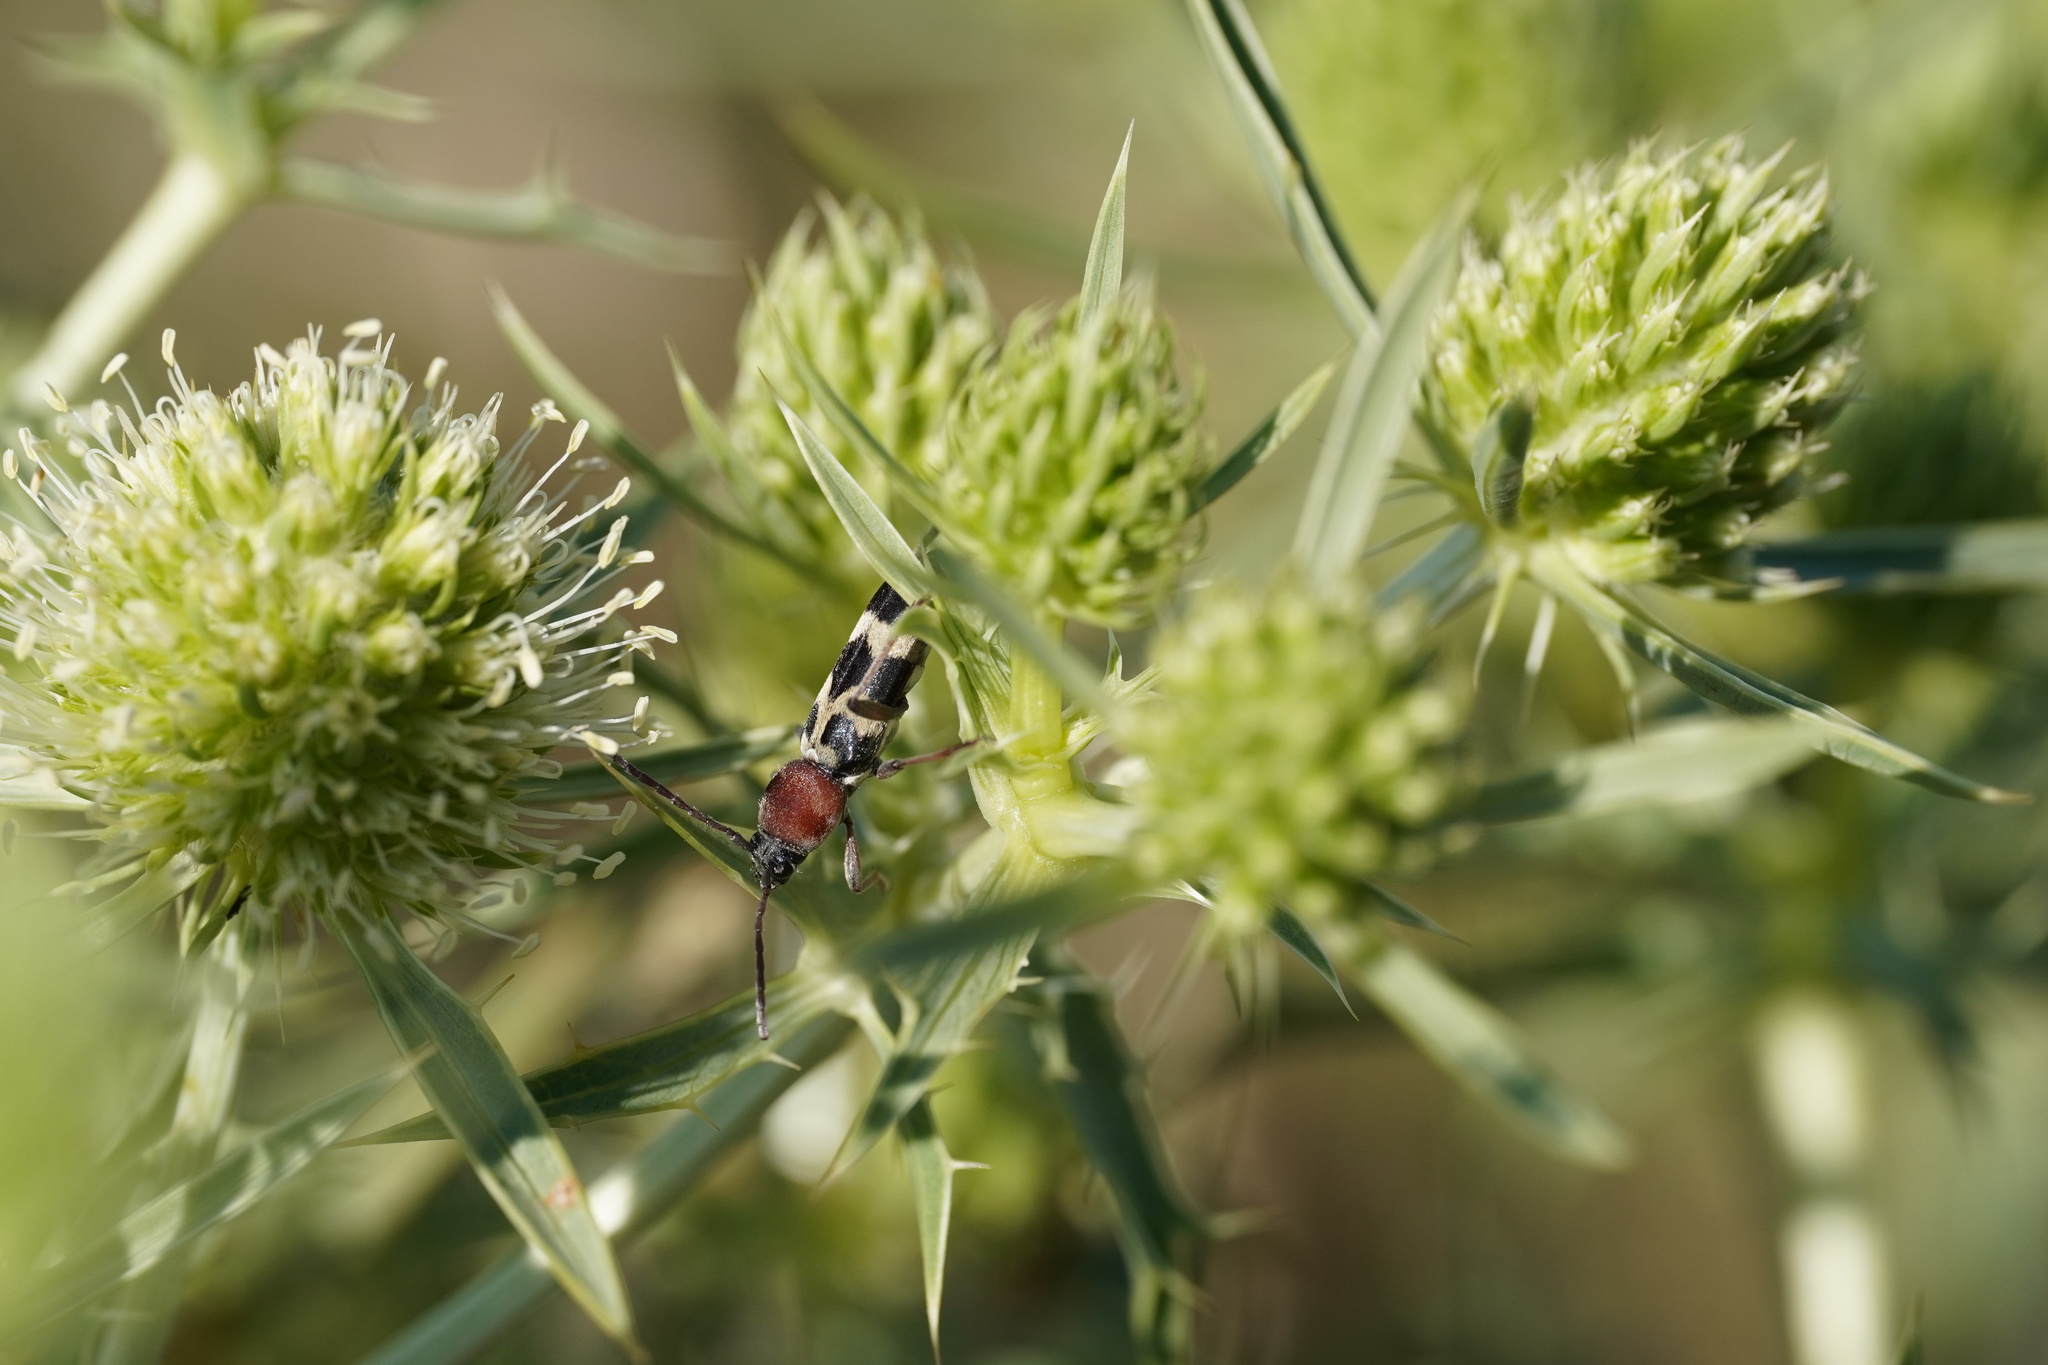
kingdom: Animalia
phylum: Arthropoda
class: Insecta
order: Coleoptera
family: Cerambycidae
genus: Chlorophorus
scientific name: Chlorophorus trifasciatus
